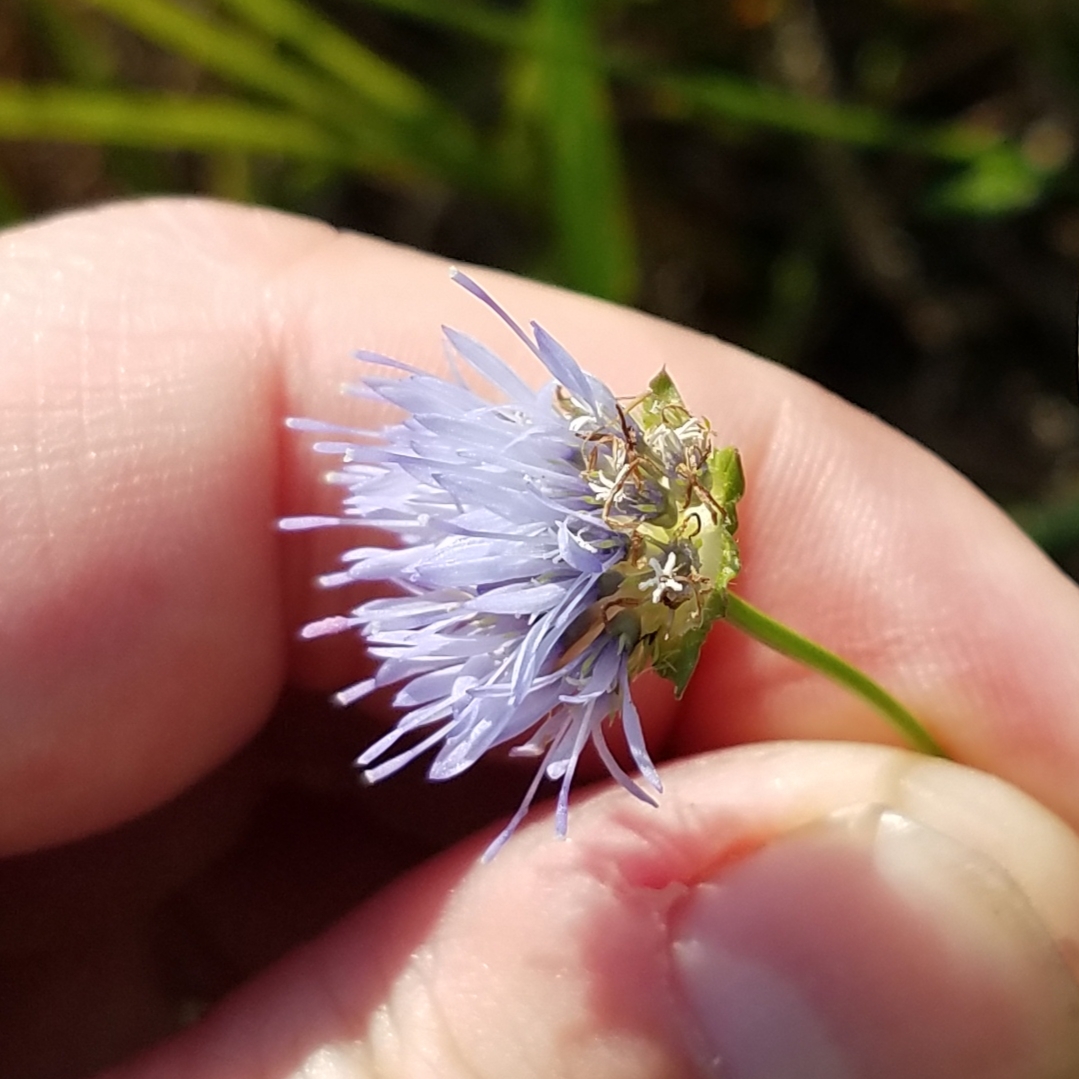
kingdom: Plantae
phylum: Tracheophyta
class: Magnoliopsida
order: Asterales
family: Campanulaceae
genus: Jasione
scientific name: Jasione montana
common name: Sheep's-bit
